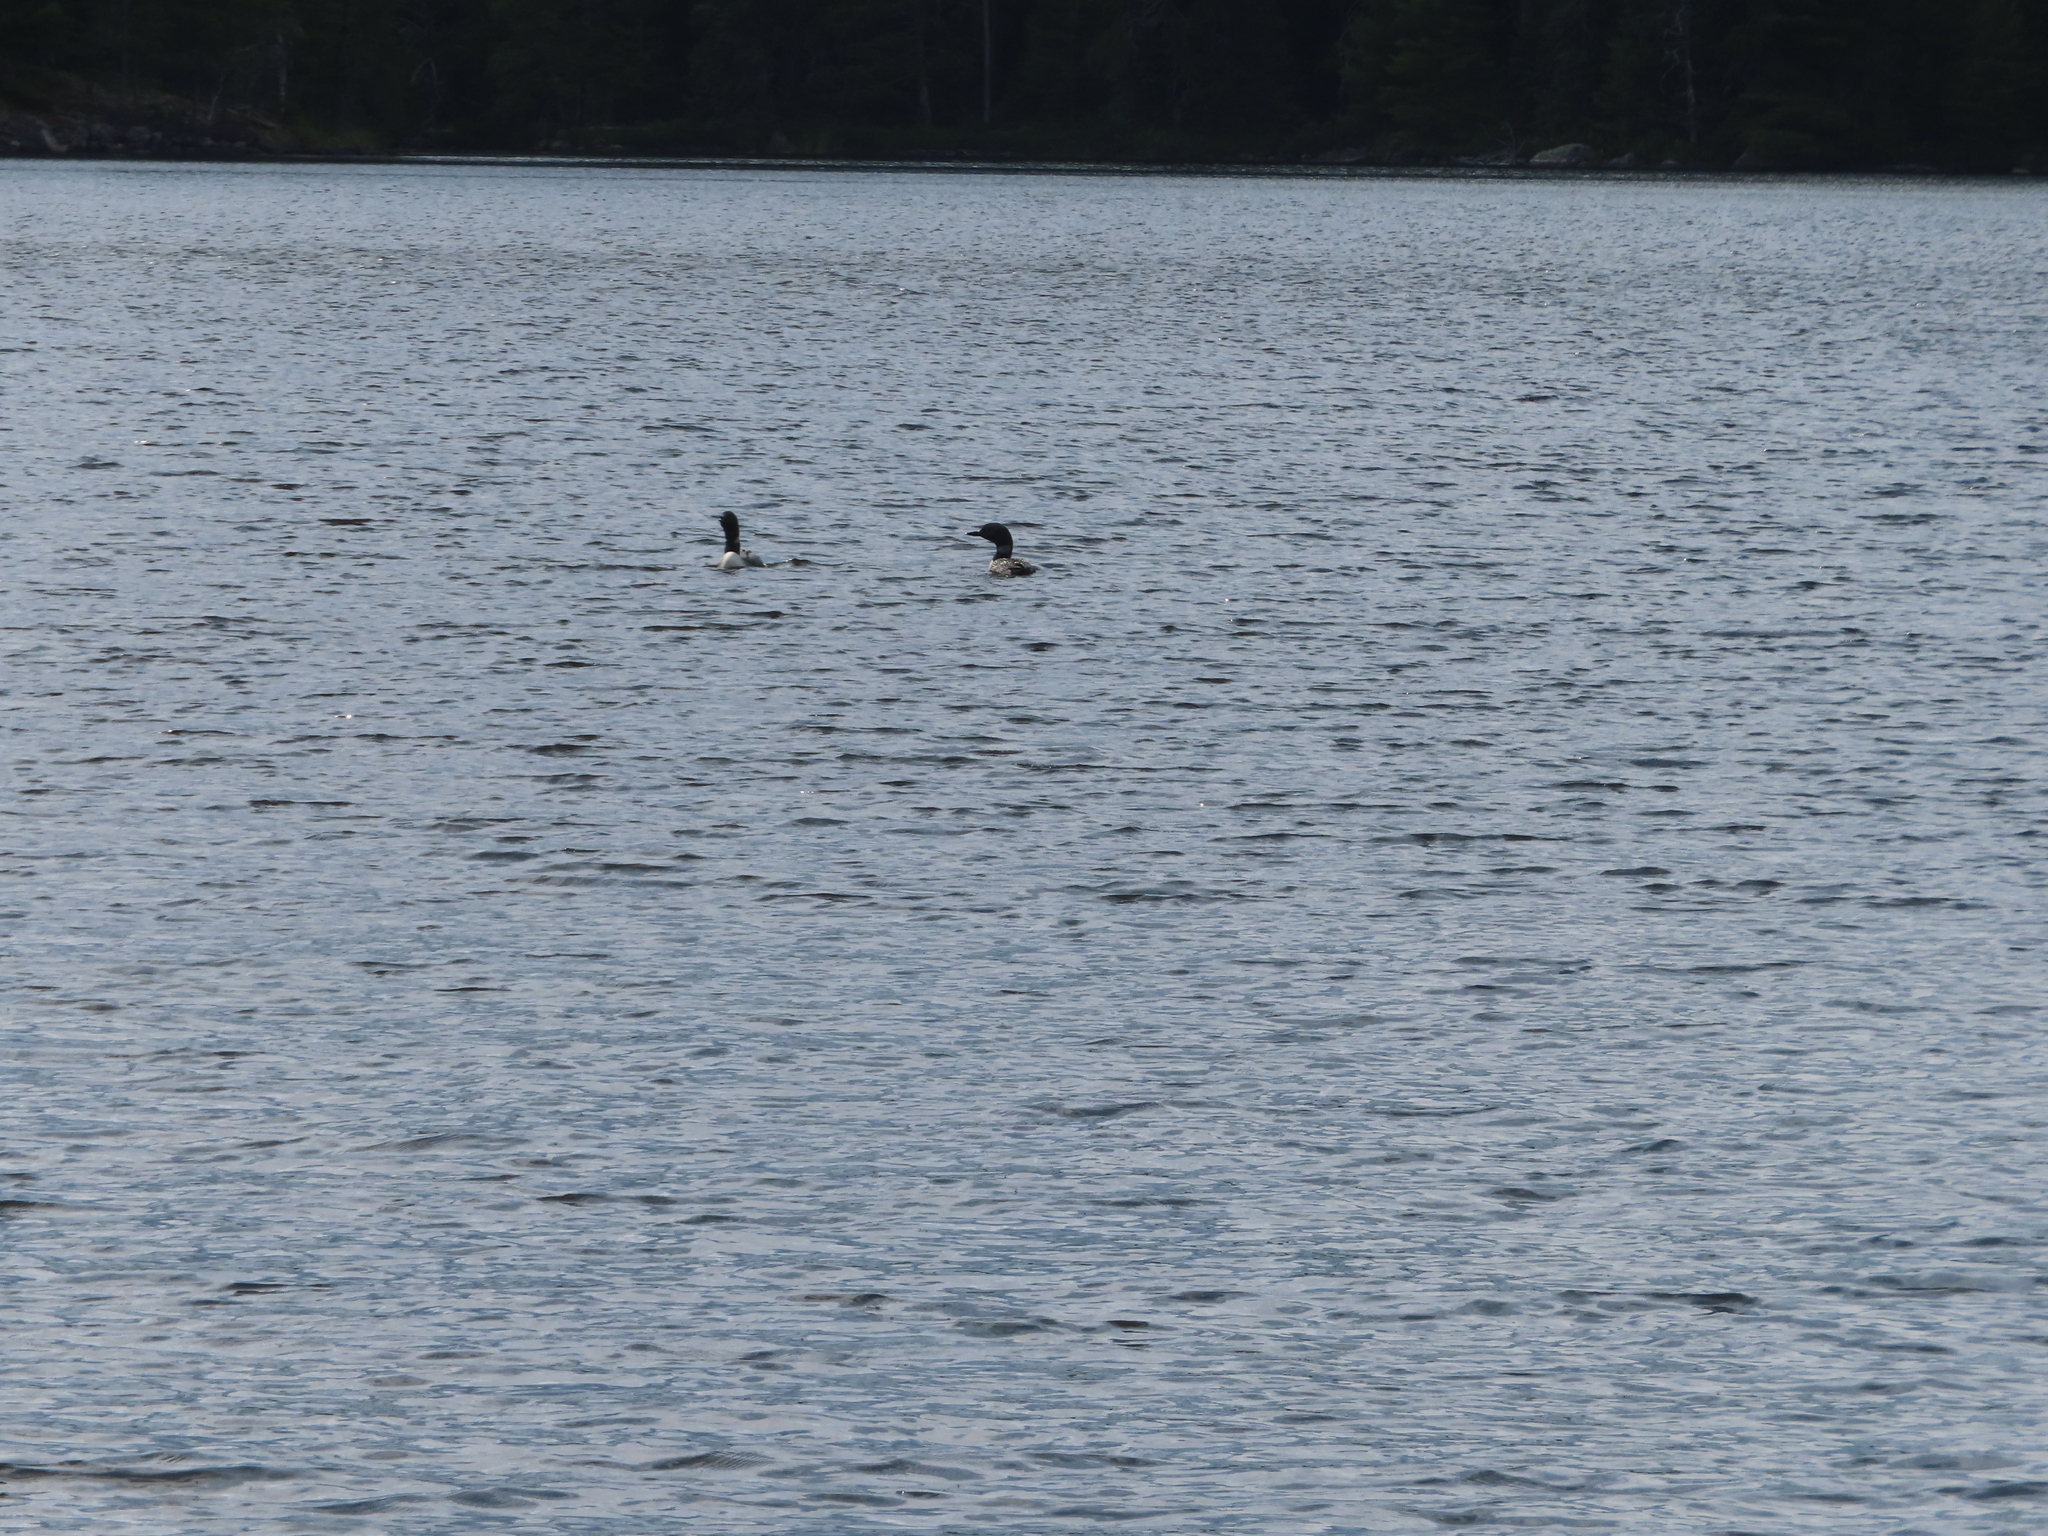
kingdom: Animalia
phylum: Chordata
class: Aves
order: Gaviiformes
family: Gaviidae
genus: Gavia
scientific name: Gavia immer
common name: Common loon
